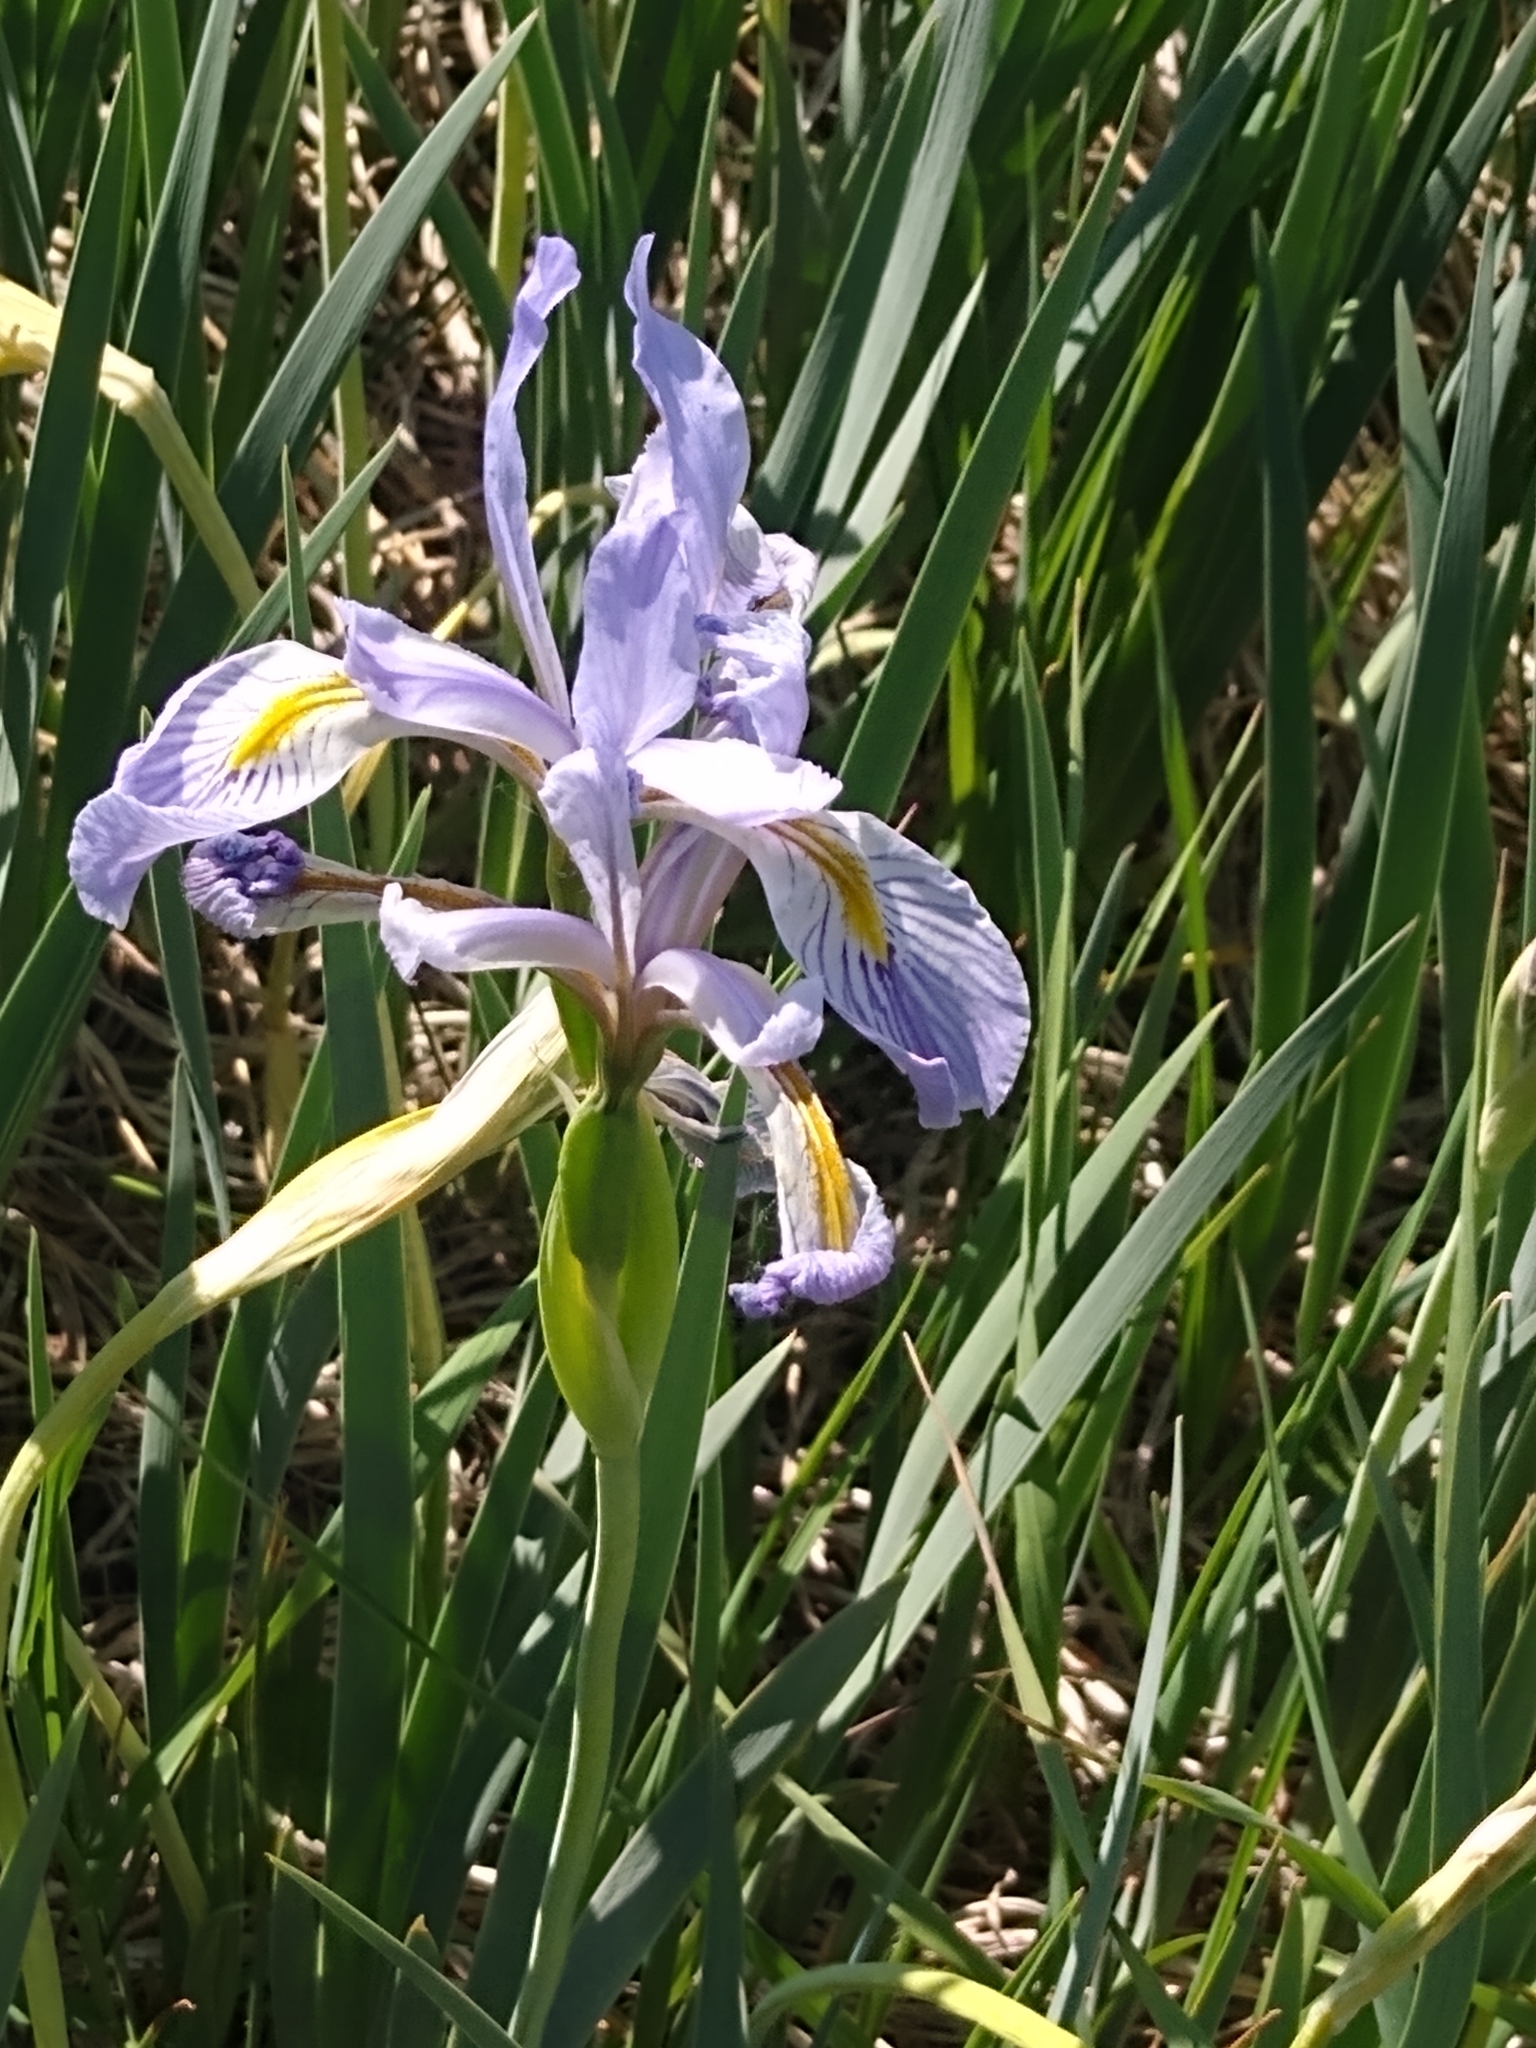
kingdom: Plantae
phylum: Tracheophyta
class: Liliopsida
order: Asparagales
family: Iridaceae
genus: Iris
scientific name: Iris missouriensis
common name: Rocky mountain iris
